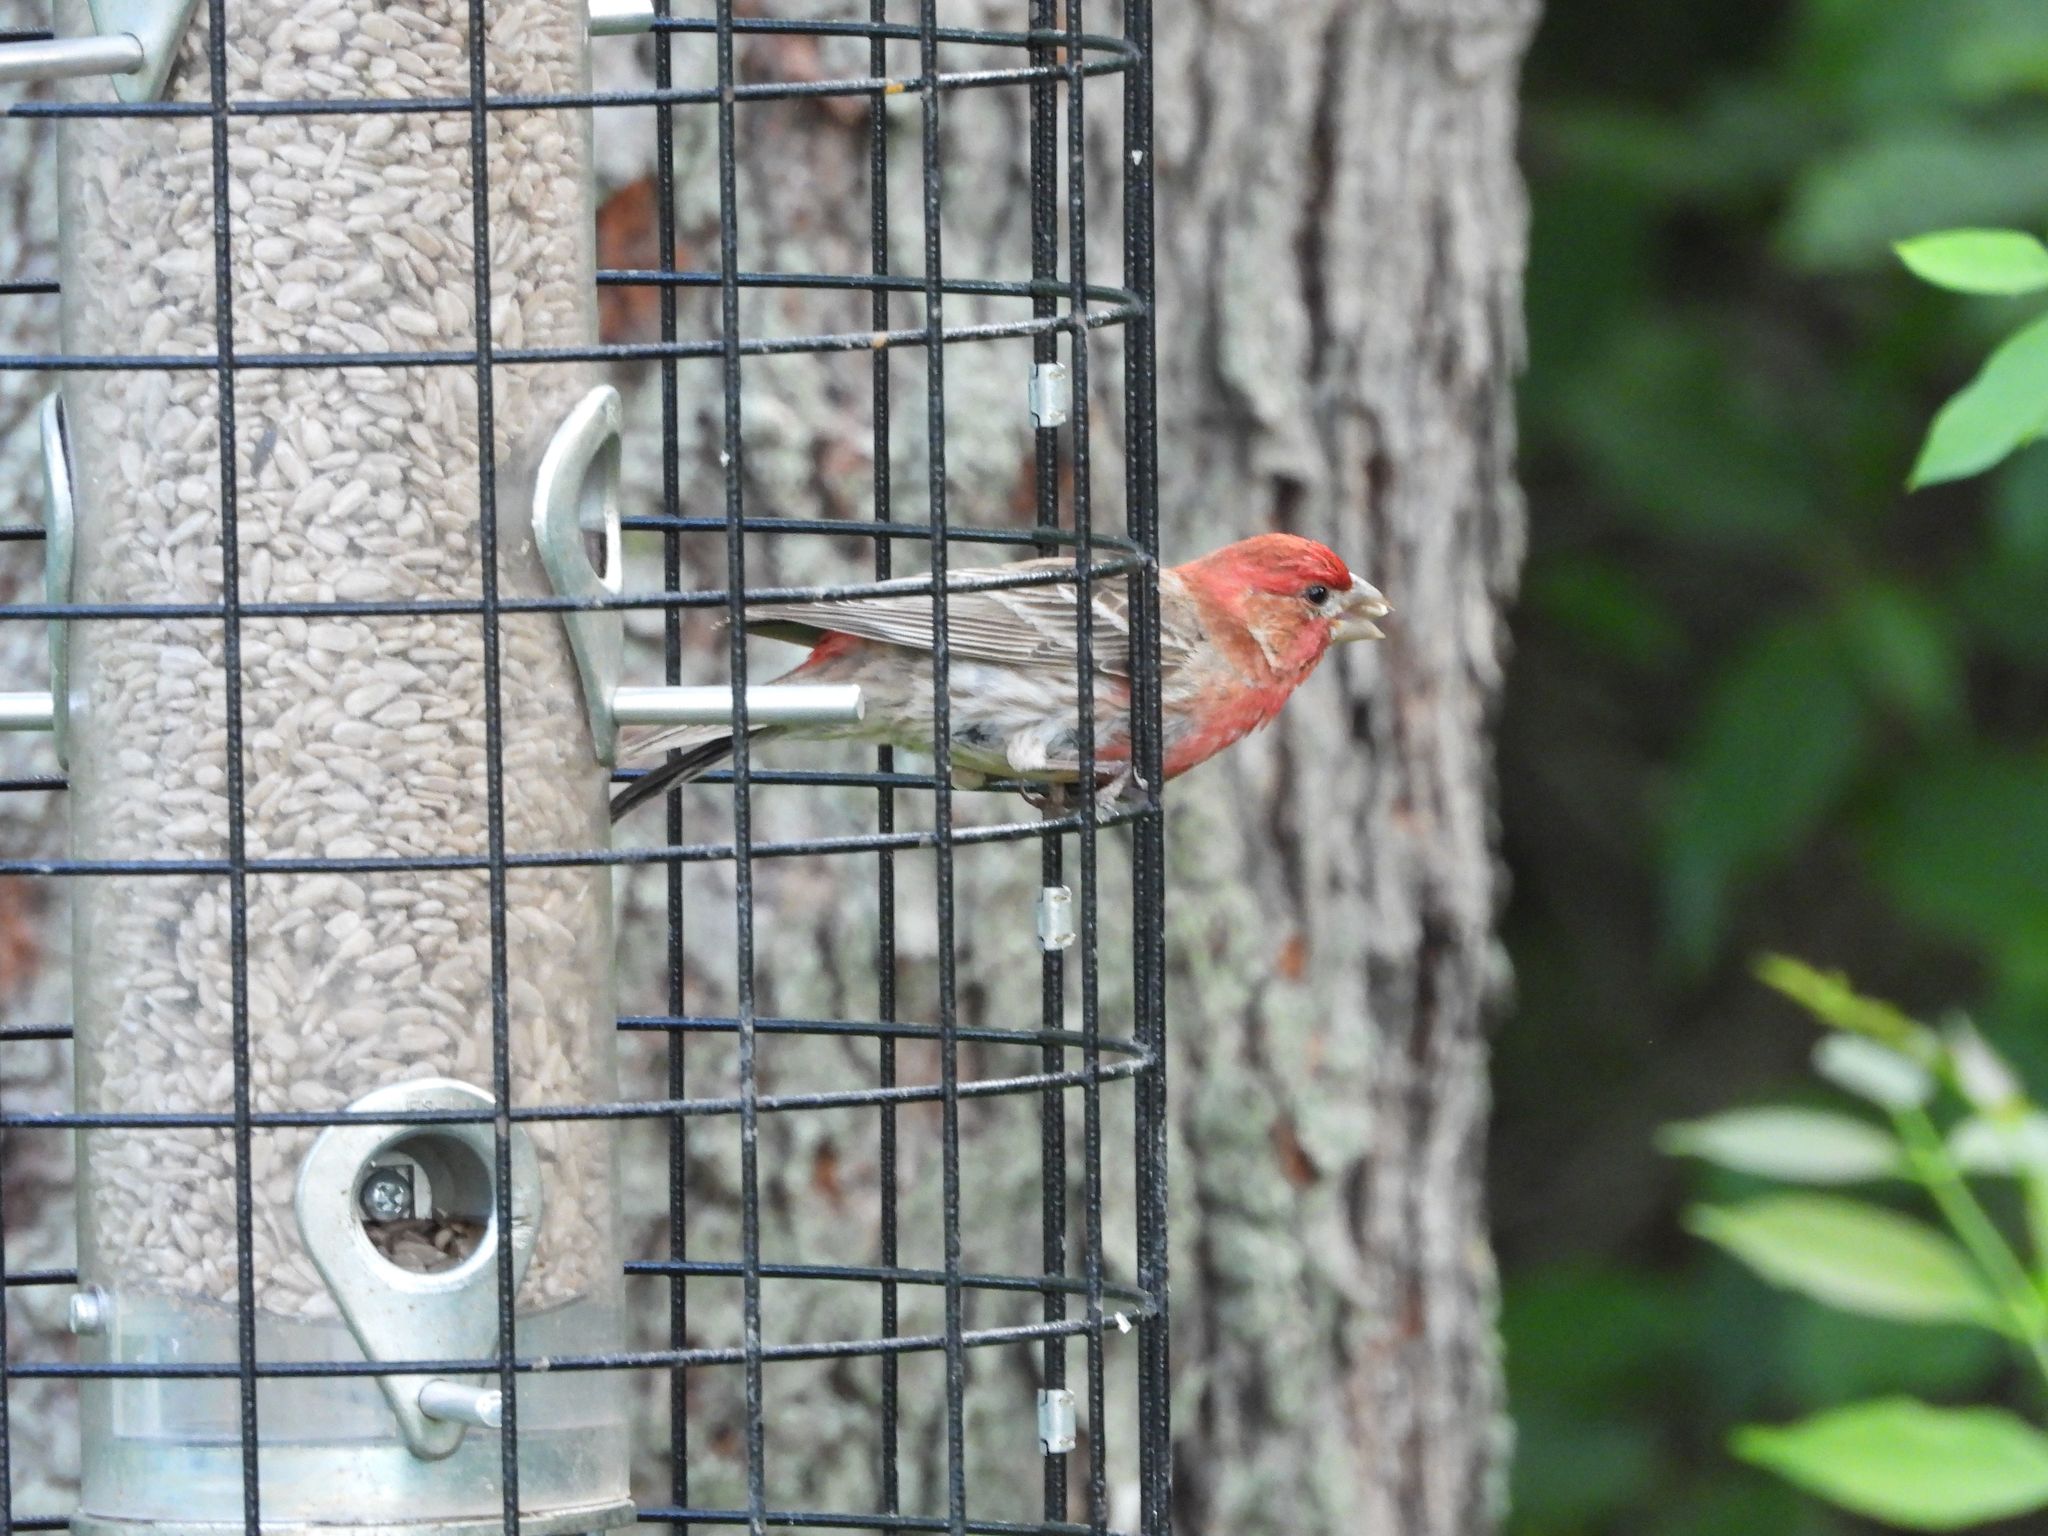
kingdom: Animalia
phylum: Chordata
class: Aves
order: Passeriformes
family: Fringillidae
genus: Haemorhous
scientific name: Haemorhous mexicanus
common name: House finch
